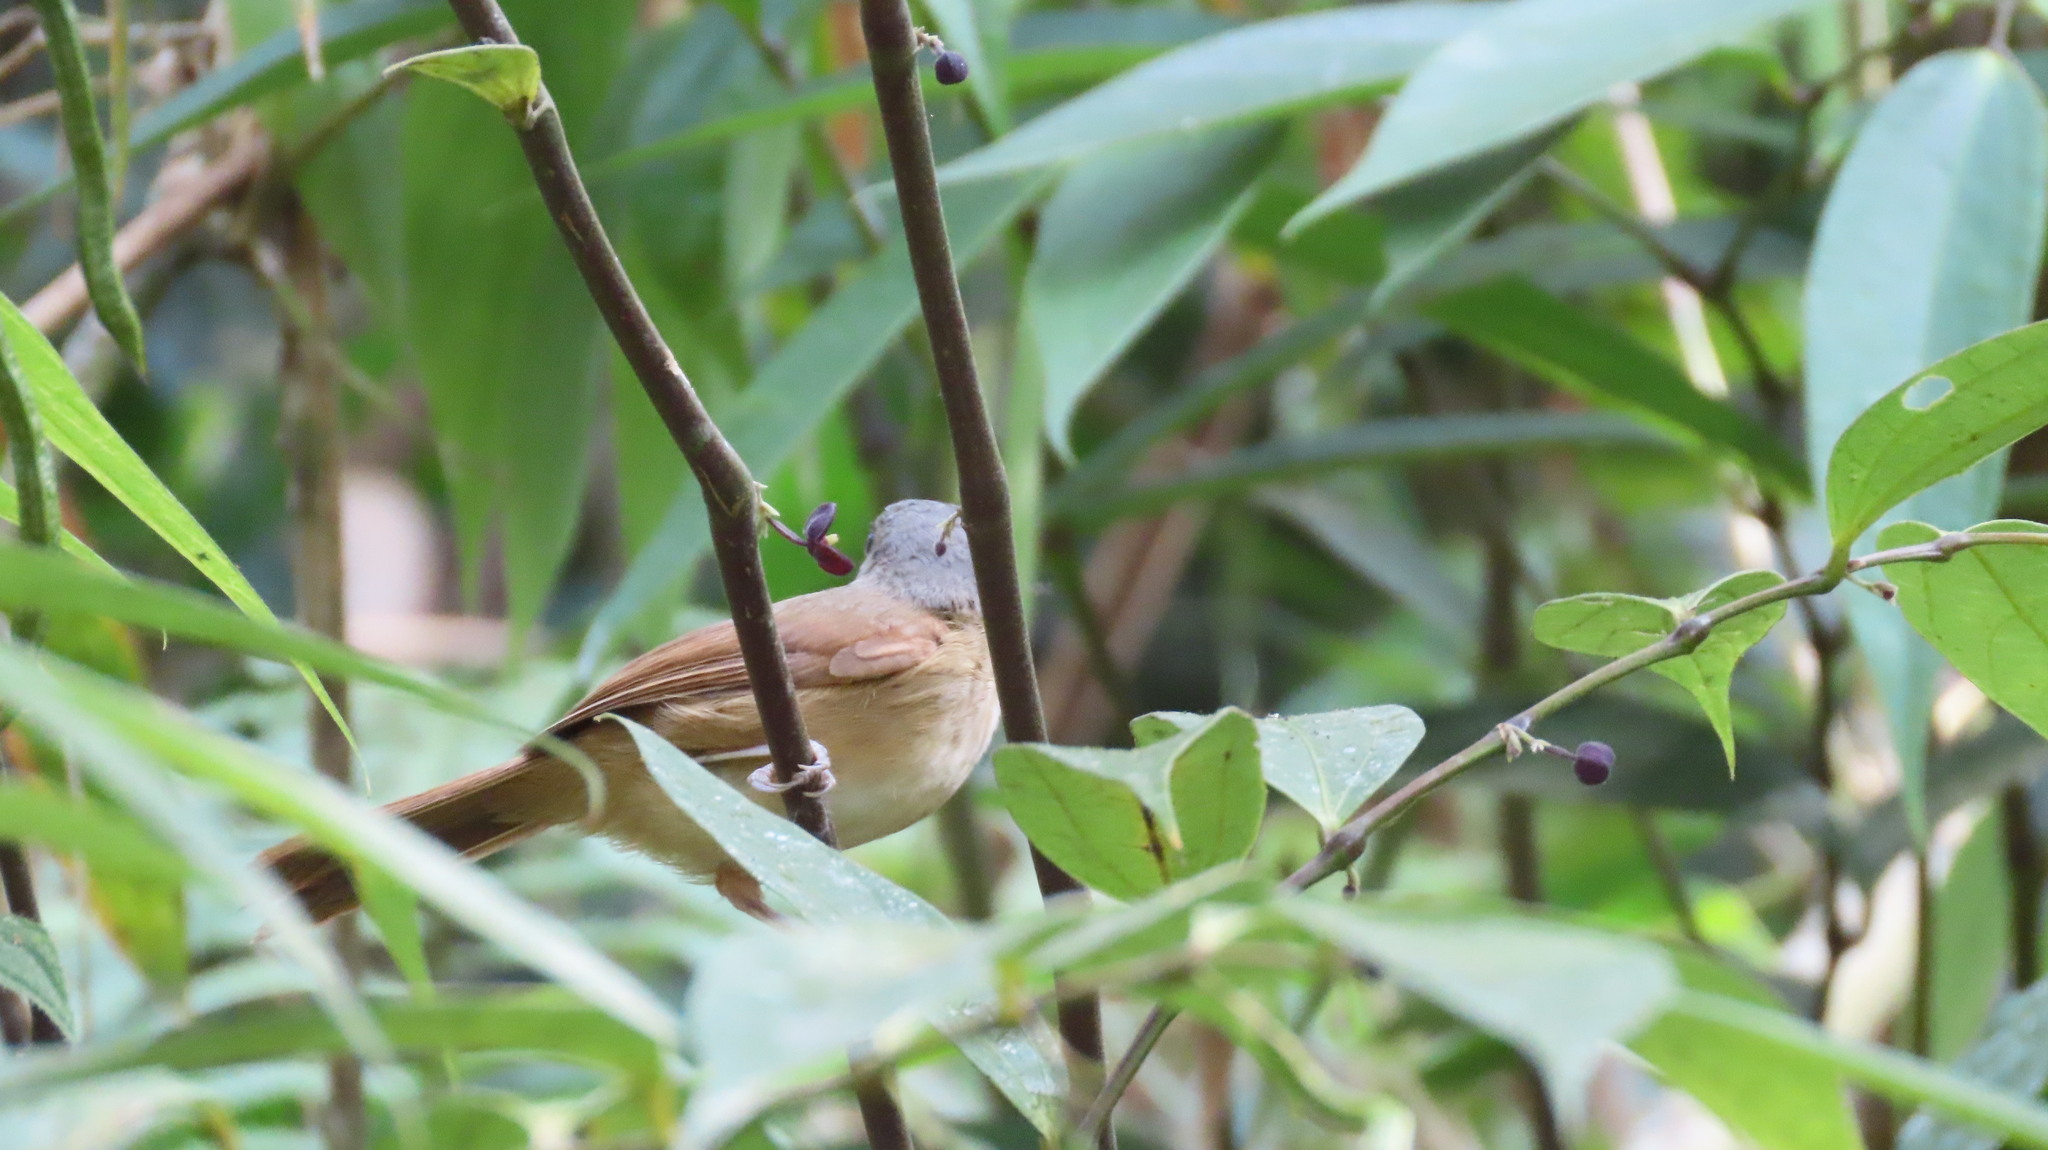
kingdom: Animalia
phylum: Chordata
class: Aves
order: Passeriformes
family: Pellorneidae
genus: Alcippe
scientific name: Alcippe poioicephala
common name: Brown-cheeked fulvetta
